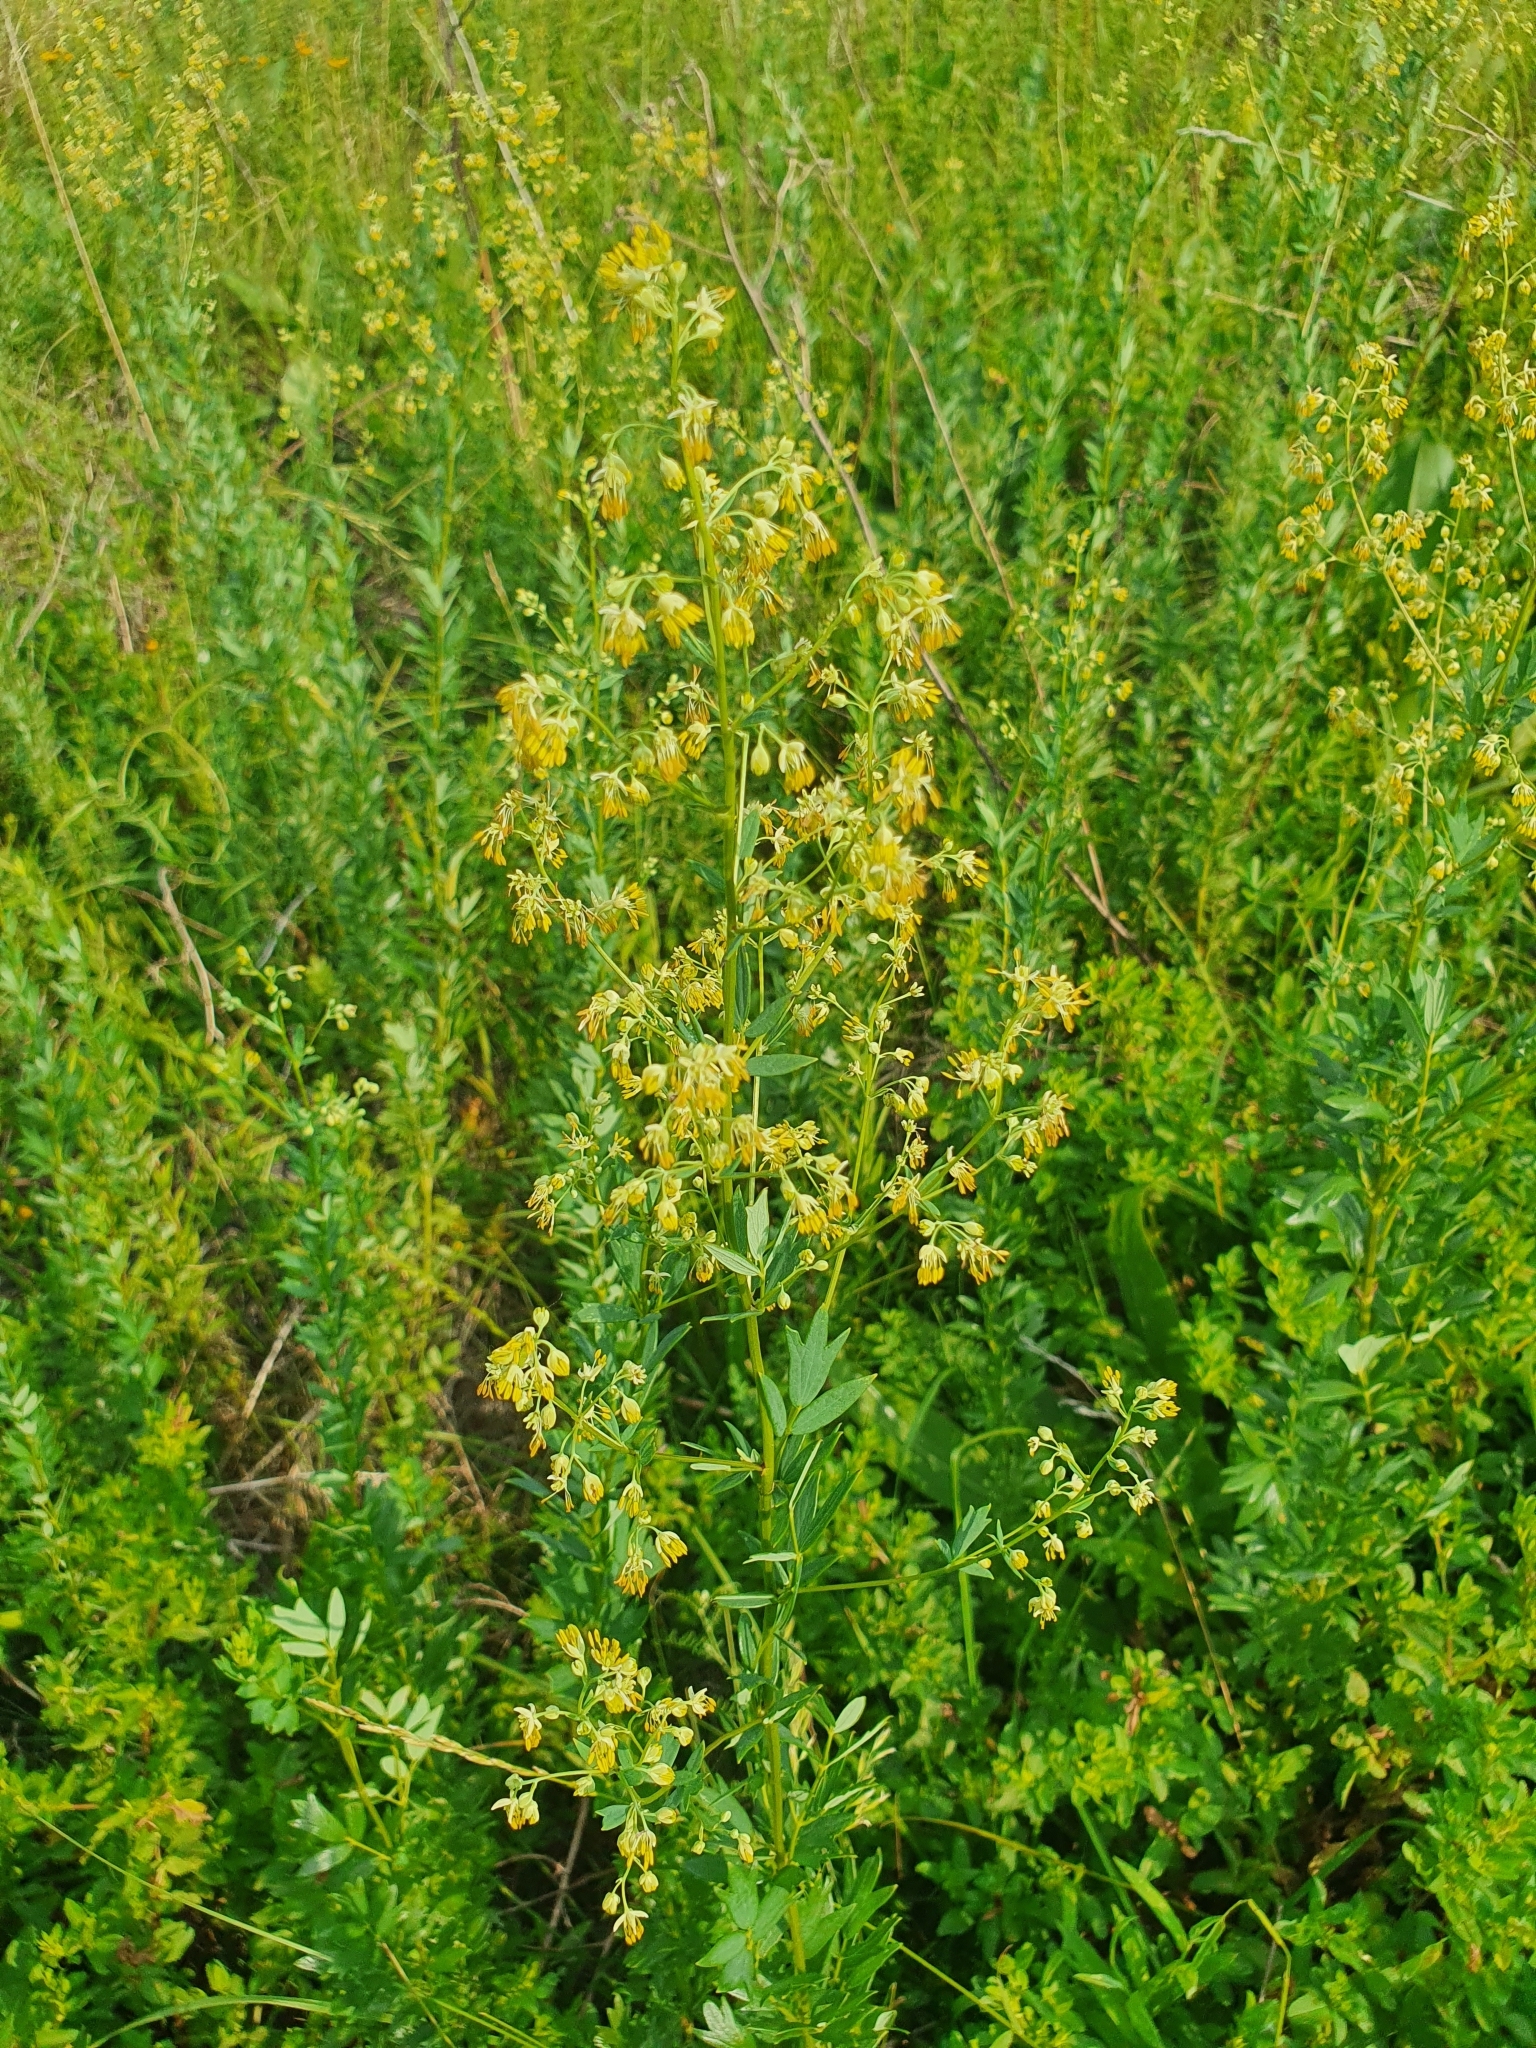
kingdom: Plantae
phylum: Tracheophyta
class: Magnoliopsida
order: Ranunculales
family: Ranunculaceae
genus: Thalictrum
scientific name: Thalictrum simplex
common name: Small meadow-rue
